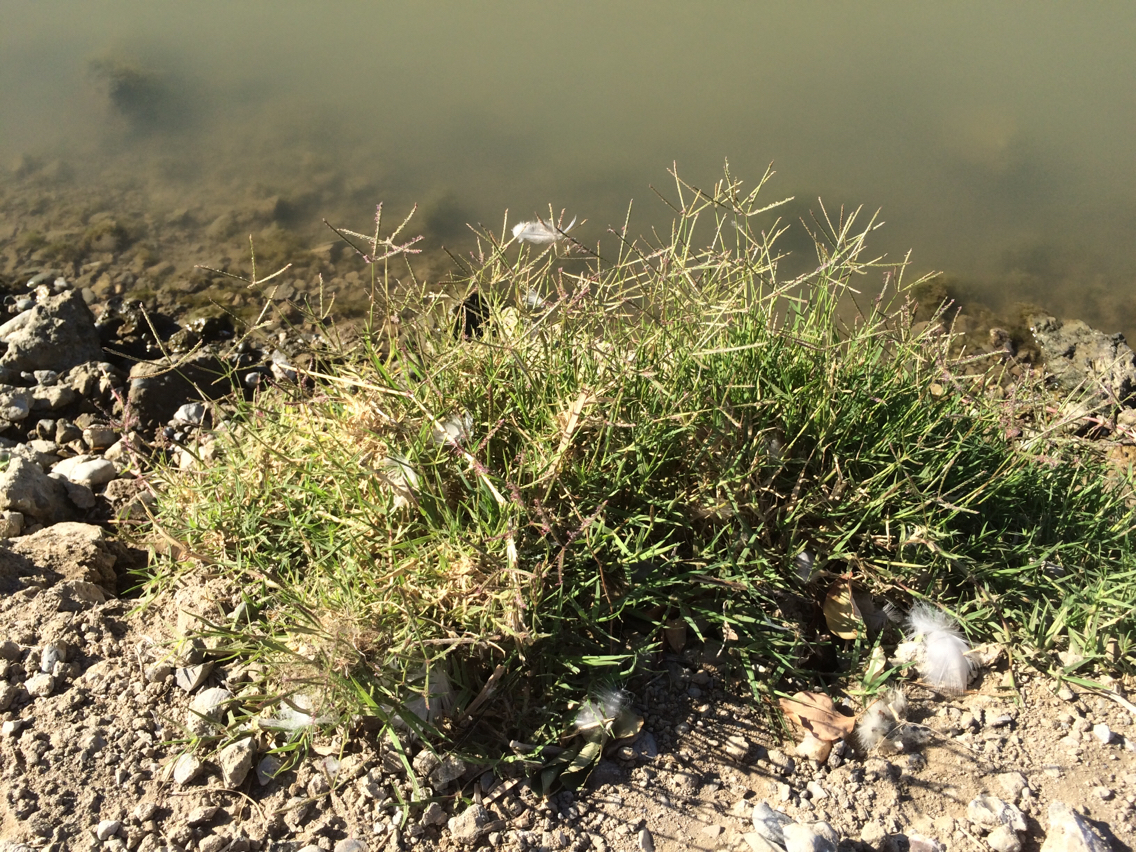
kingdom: Plantae
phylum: Tracheophyta
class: Liliopsida
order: Poales
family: Poaceae
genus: Cynodon
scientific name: Cynodon dactylon
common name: Bermuda grass
